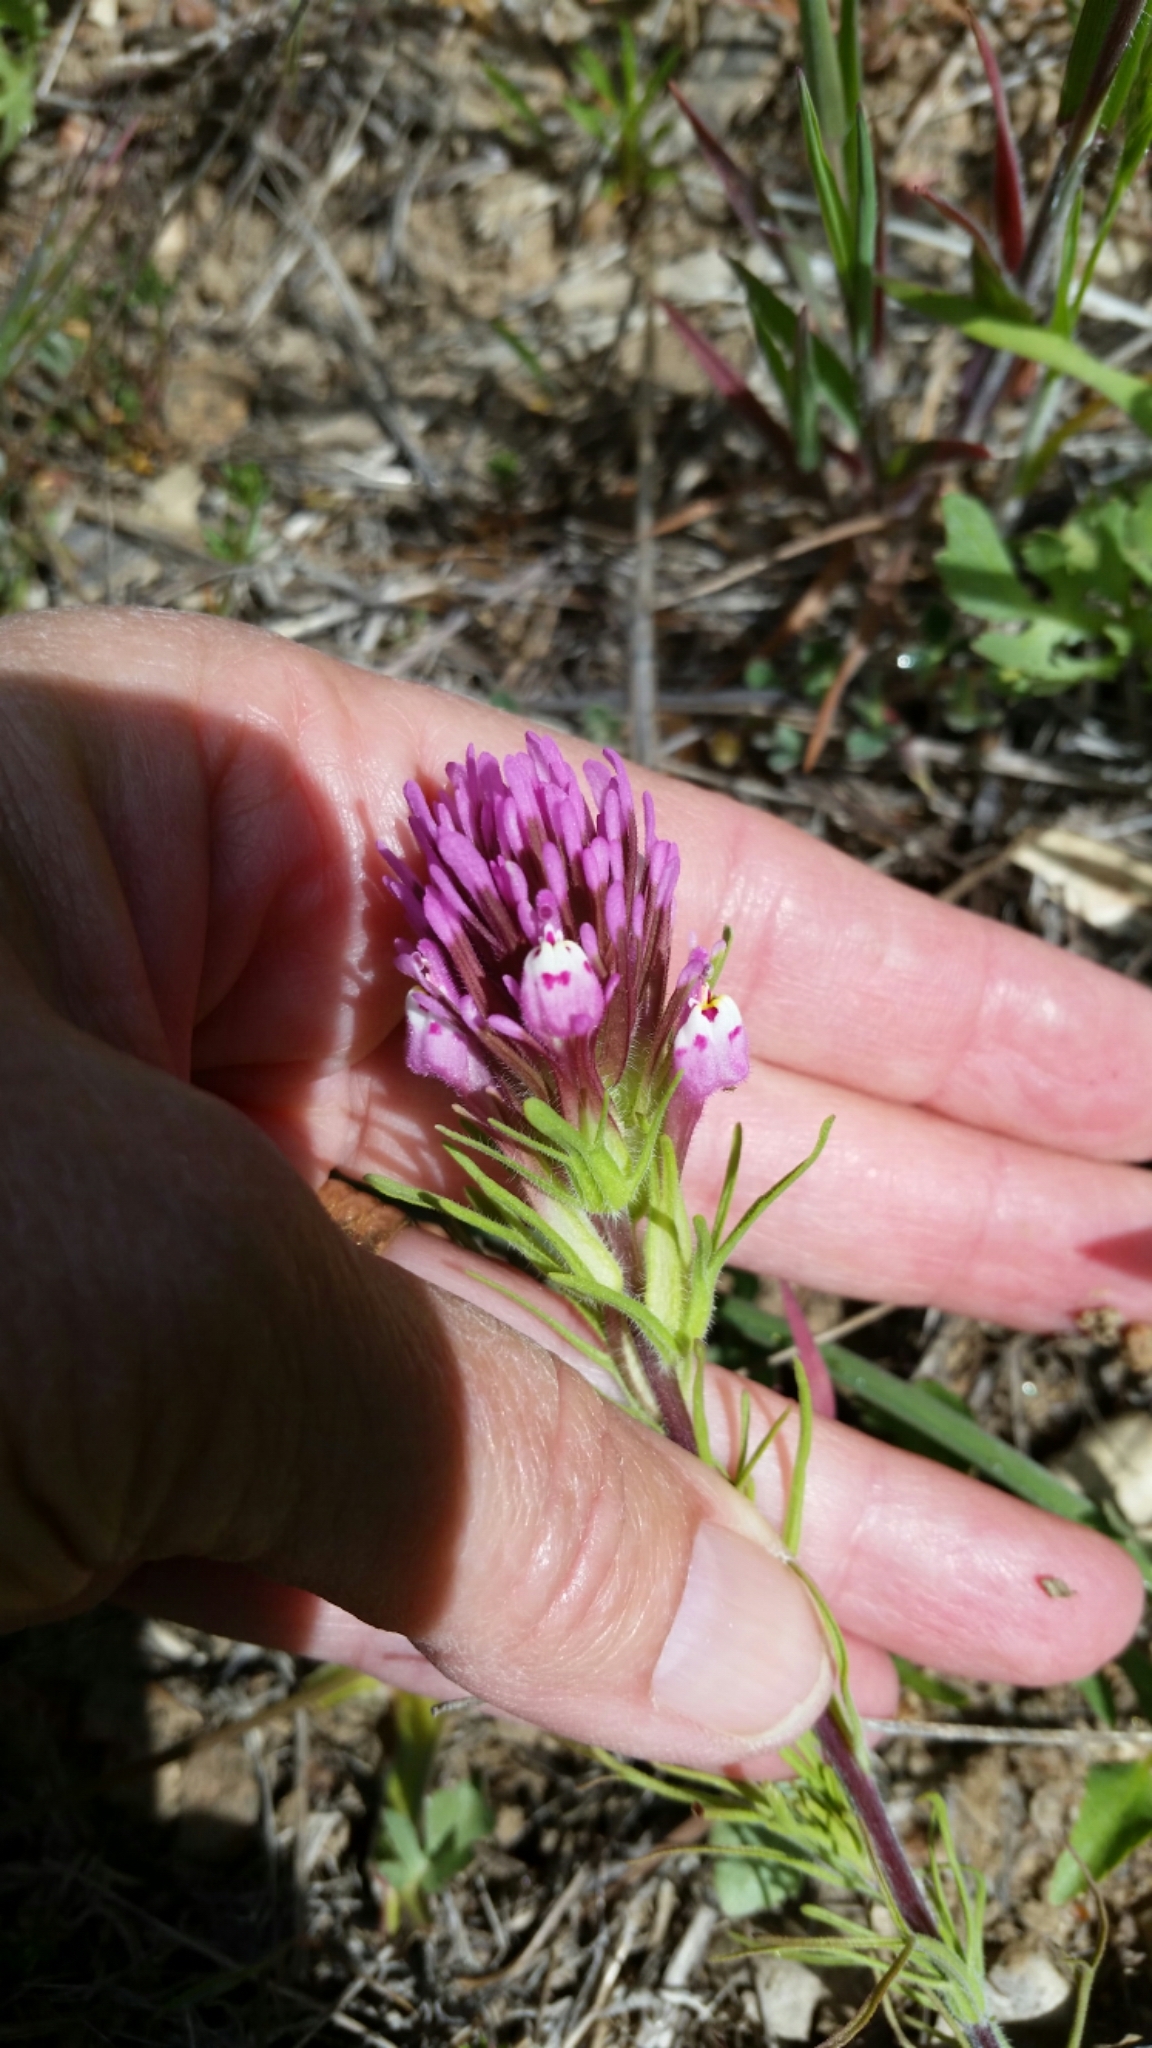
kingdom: Plantae
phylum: Tracheophyta
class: Magnoliopsida
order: Lamiales
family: Orobanchaceae
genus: Castilleja
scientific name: Castilleja exserta
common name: Purple owl-clover
